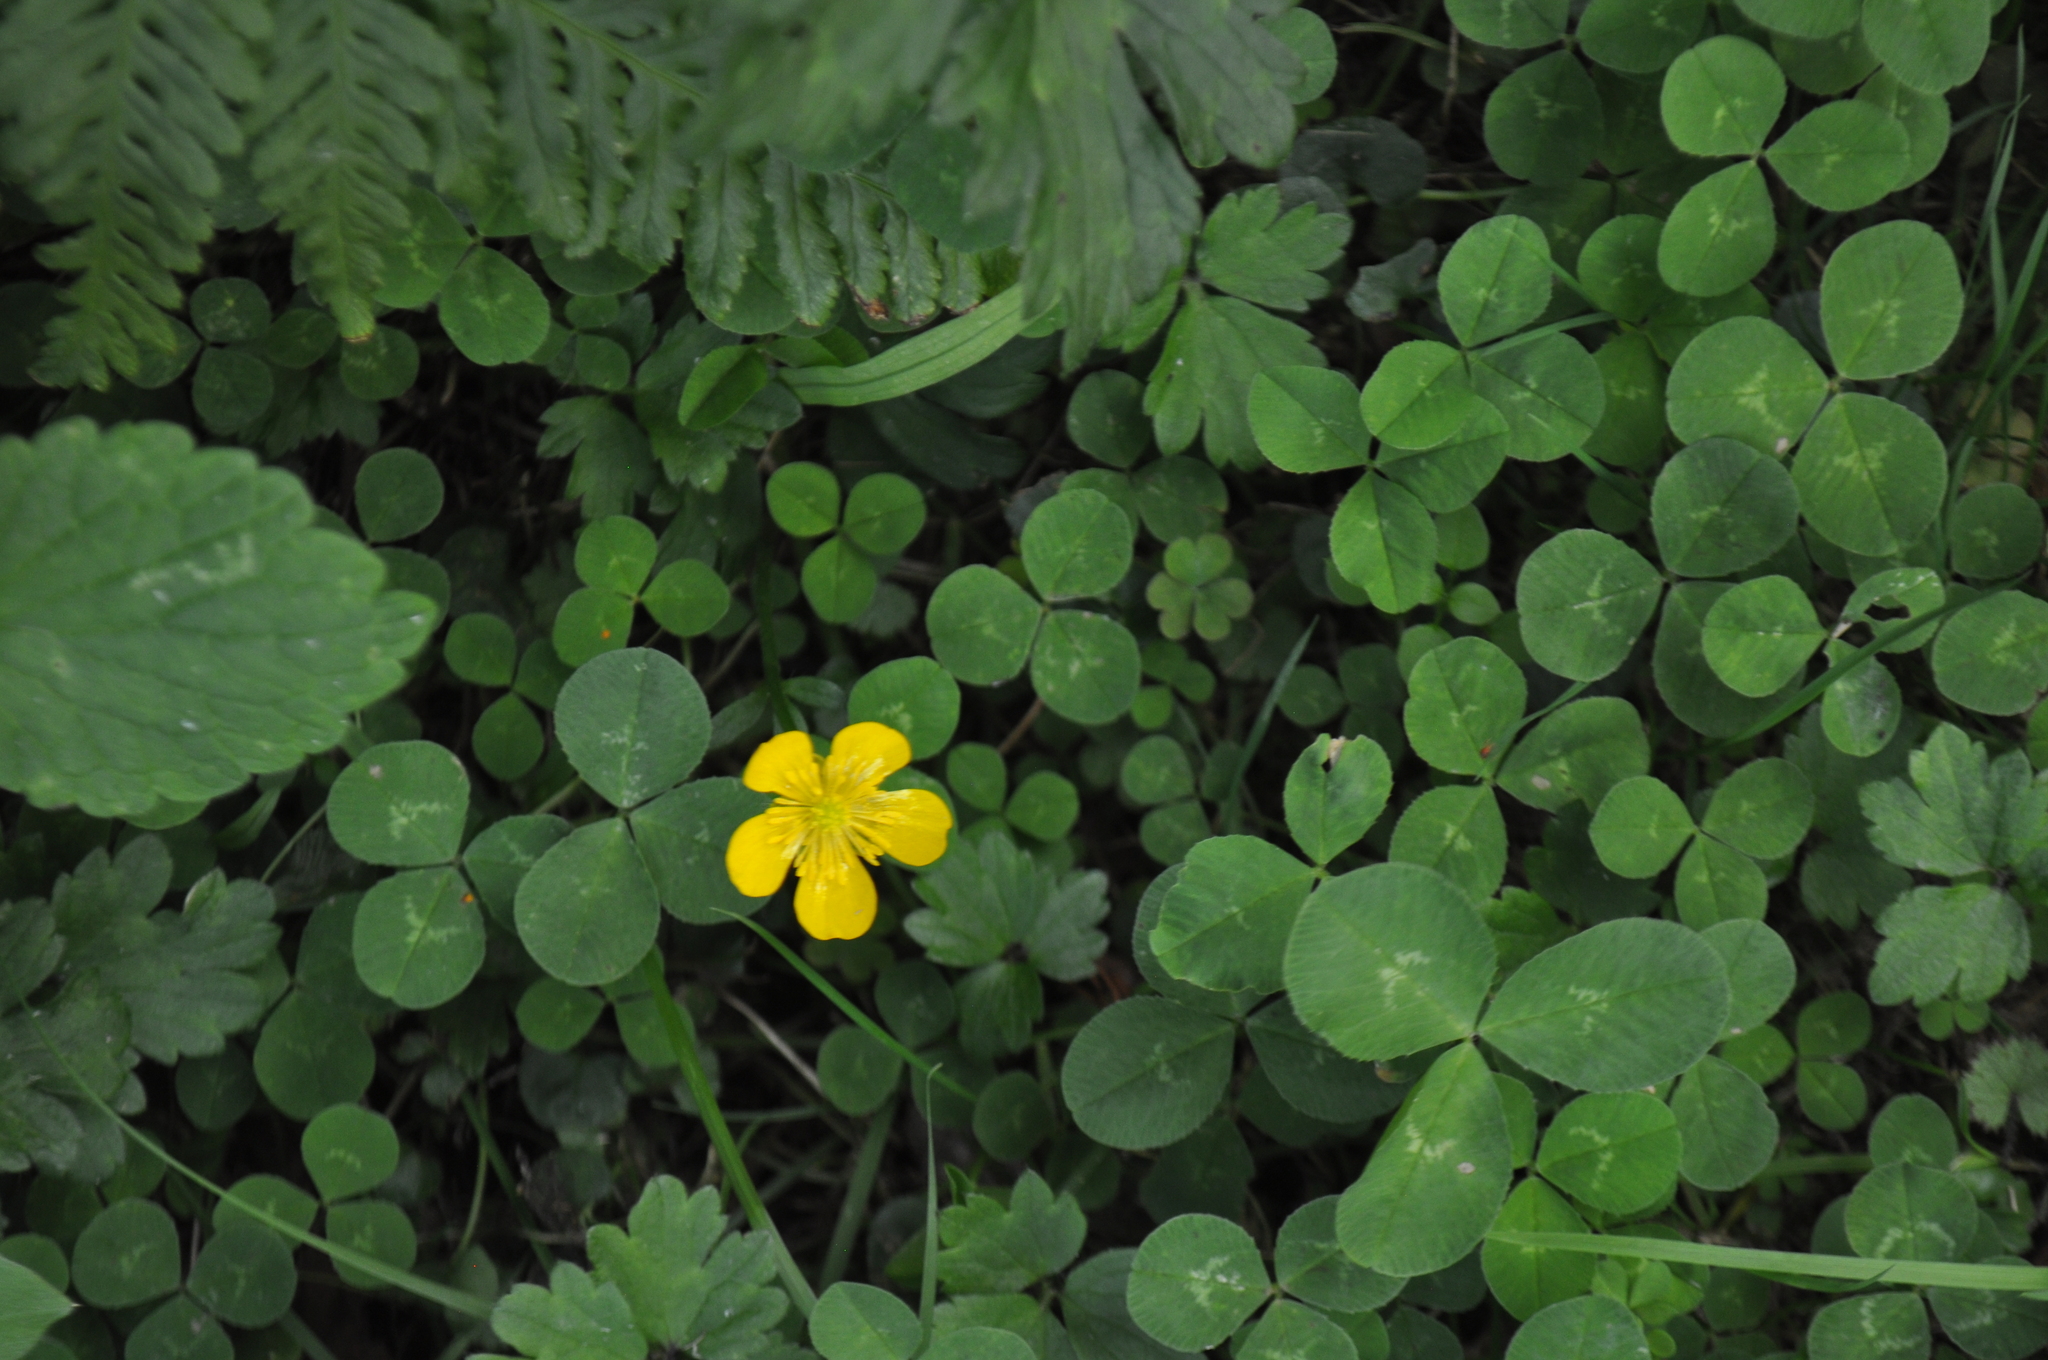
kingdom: Plantae
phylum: Tracheophyta
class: Magnoliopsida
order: Ranunculales
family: Ranunculaceae
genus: Ranunculus
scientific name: Ranunculus repens
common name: Creeping buttercup
